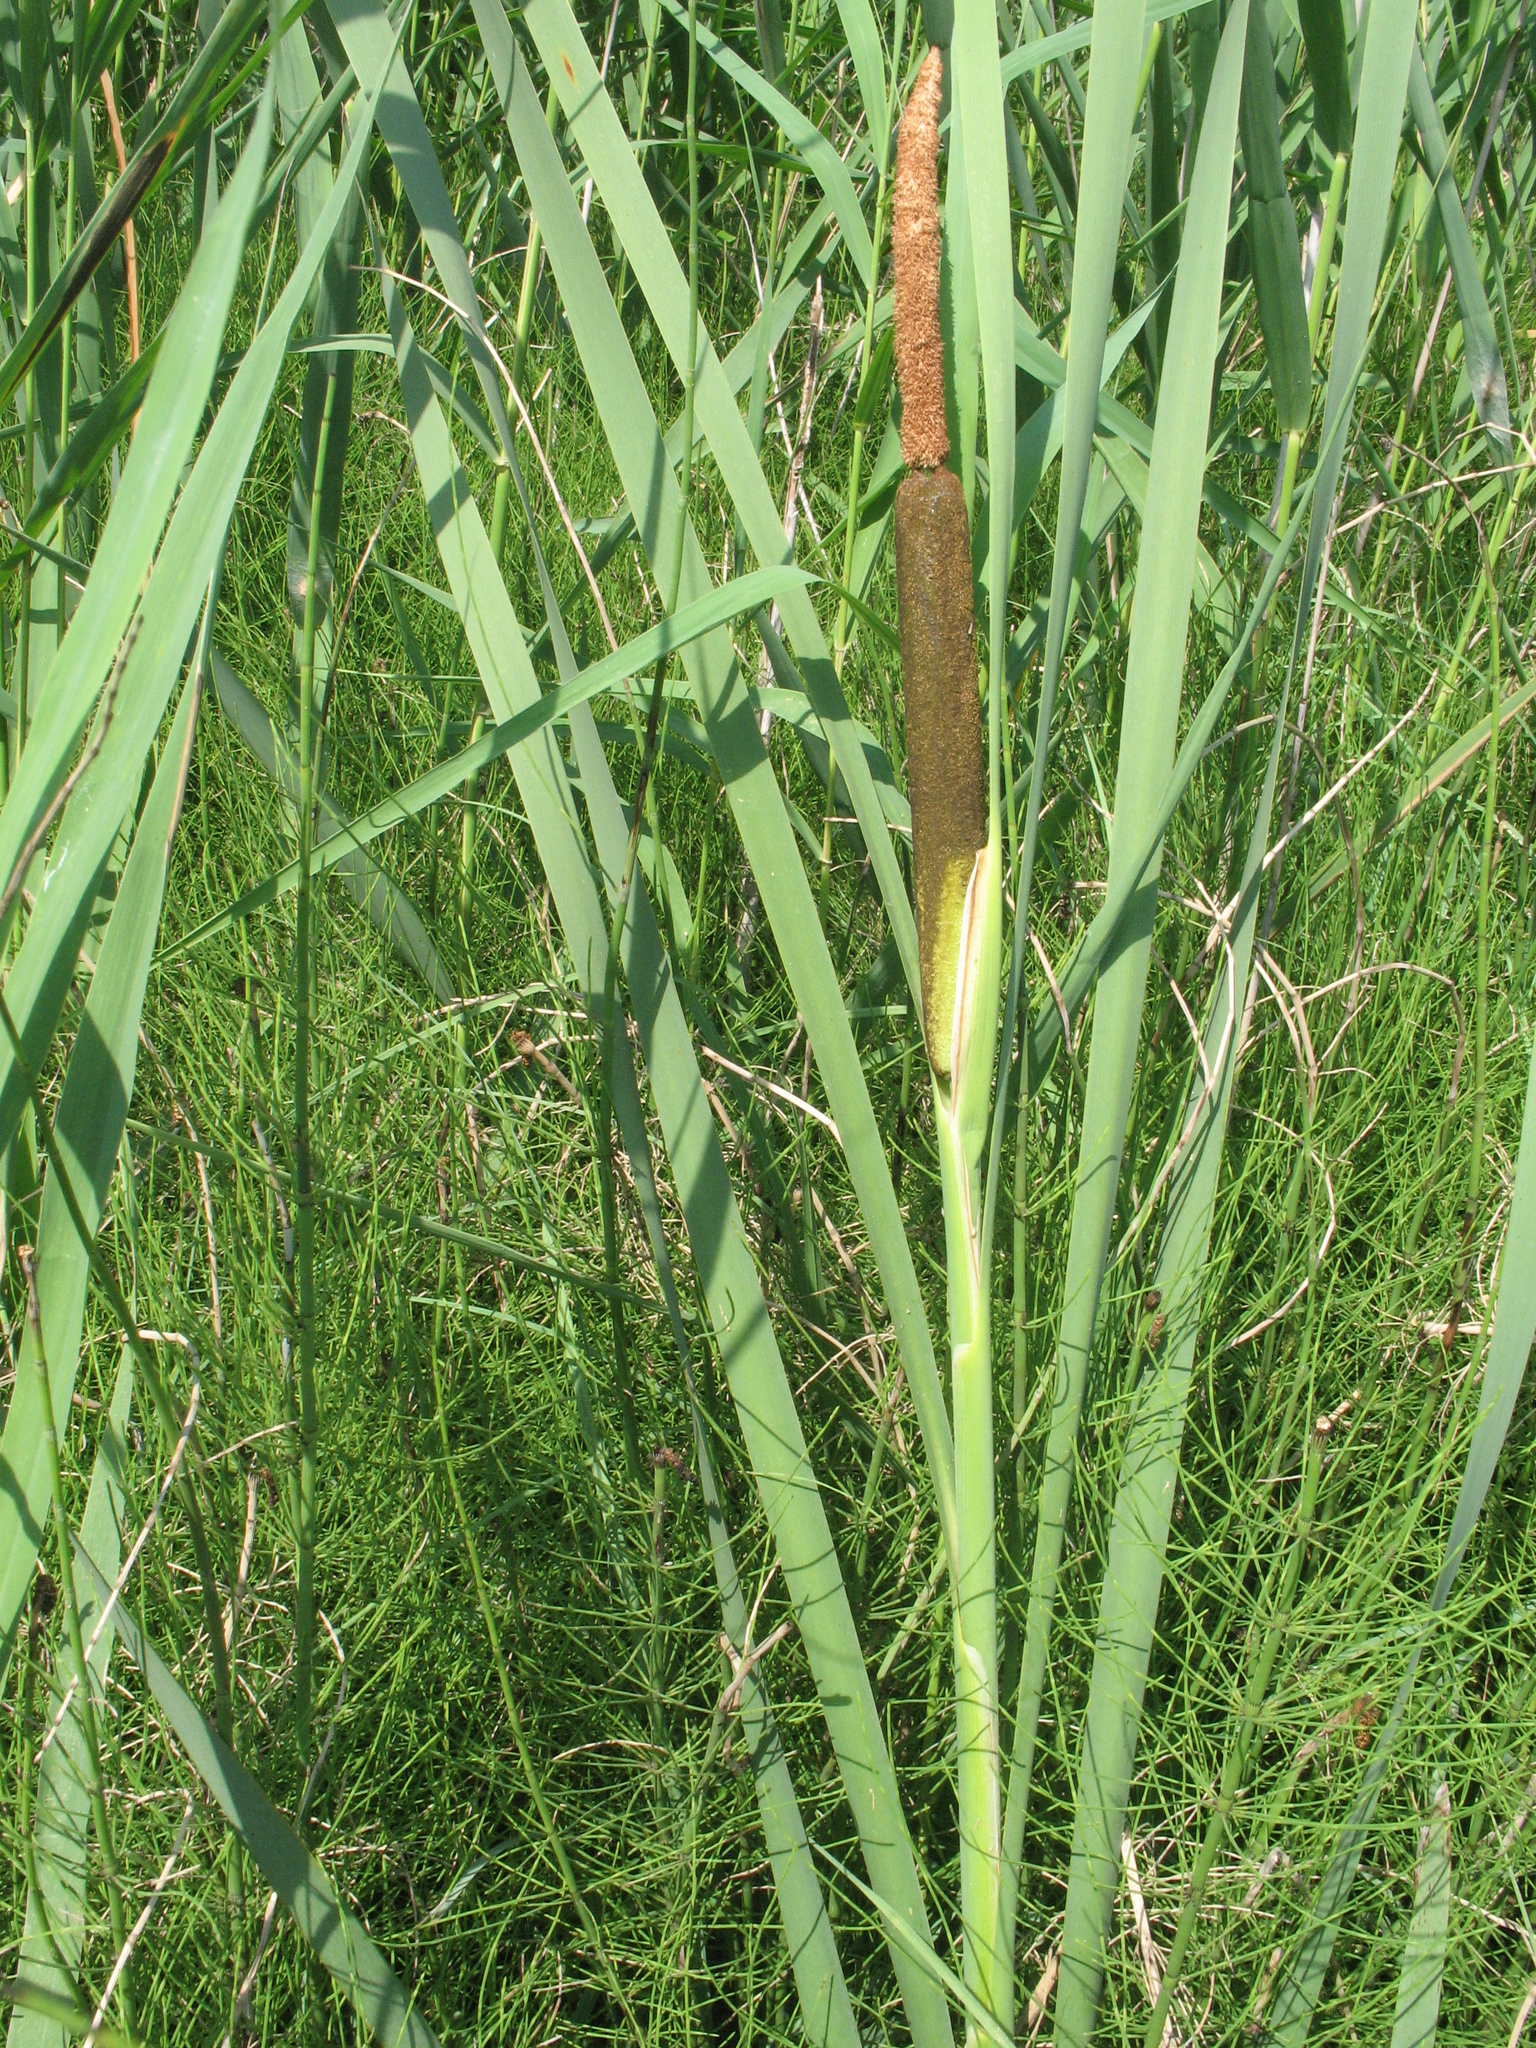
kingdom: Plantae
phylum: Tracheophyta
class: Liliopsida
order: Poales
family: Typhaceae
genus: Typha
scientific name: Typha latifolia
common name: Broadleaf cattail
